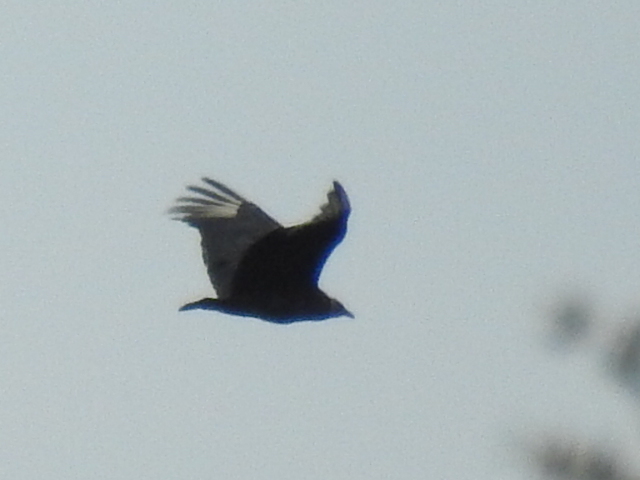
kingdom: Animalia
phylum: Chordata
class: Aves
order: Accipitriformes
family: Cathartidae
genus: Coragyps
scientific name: Coragyps atratus
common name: Black vulture
